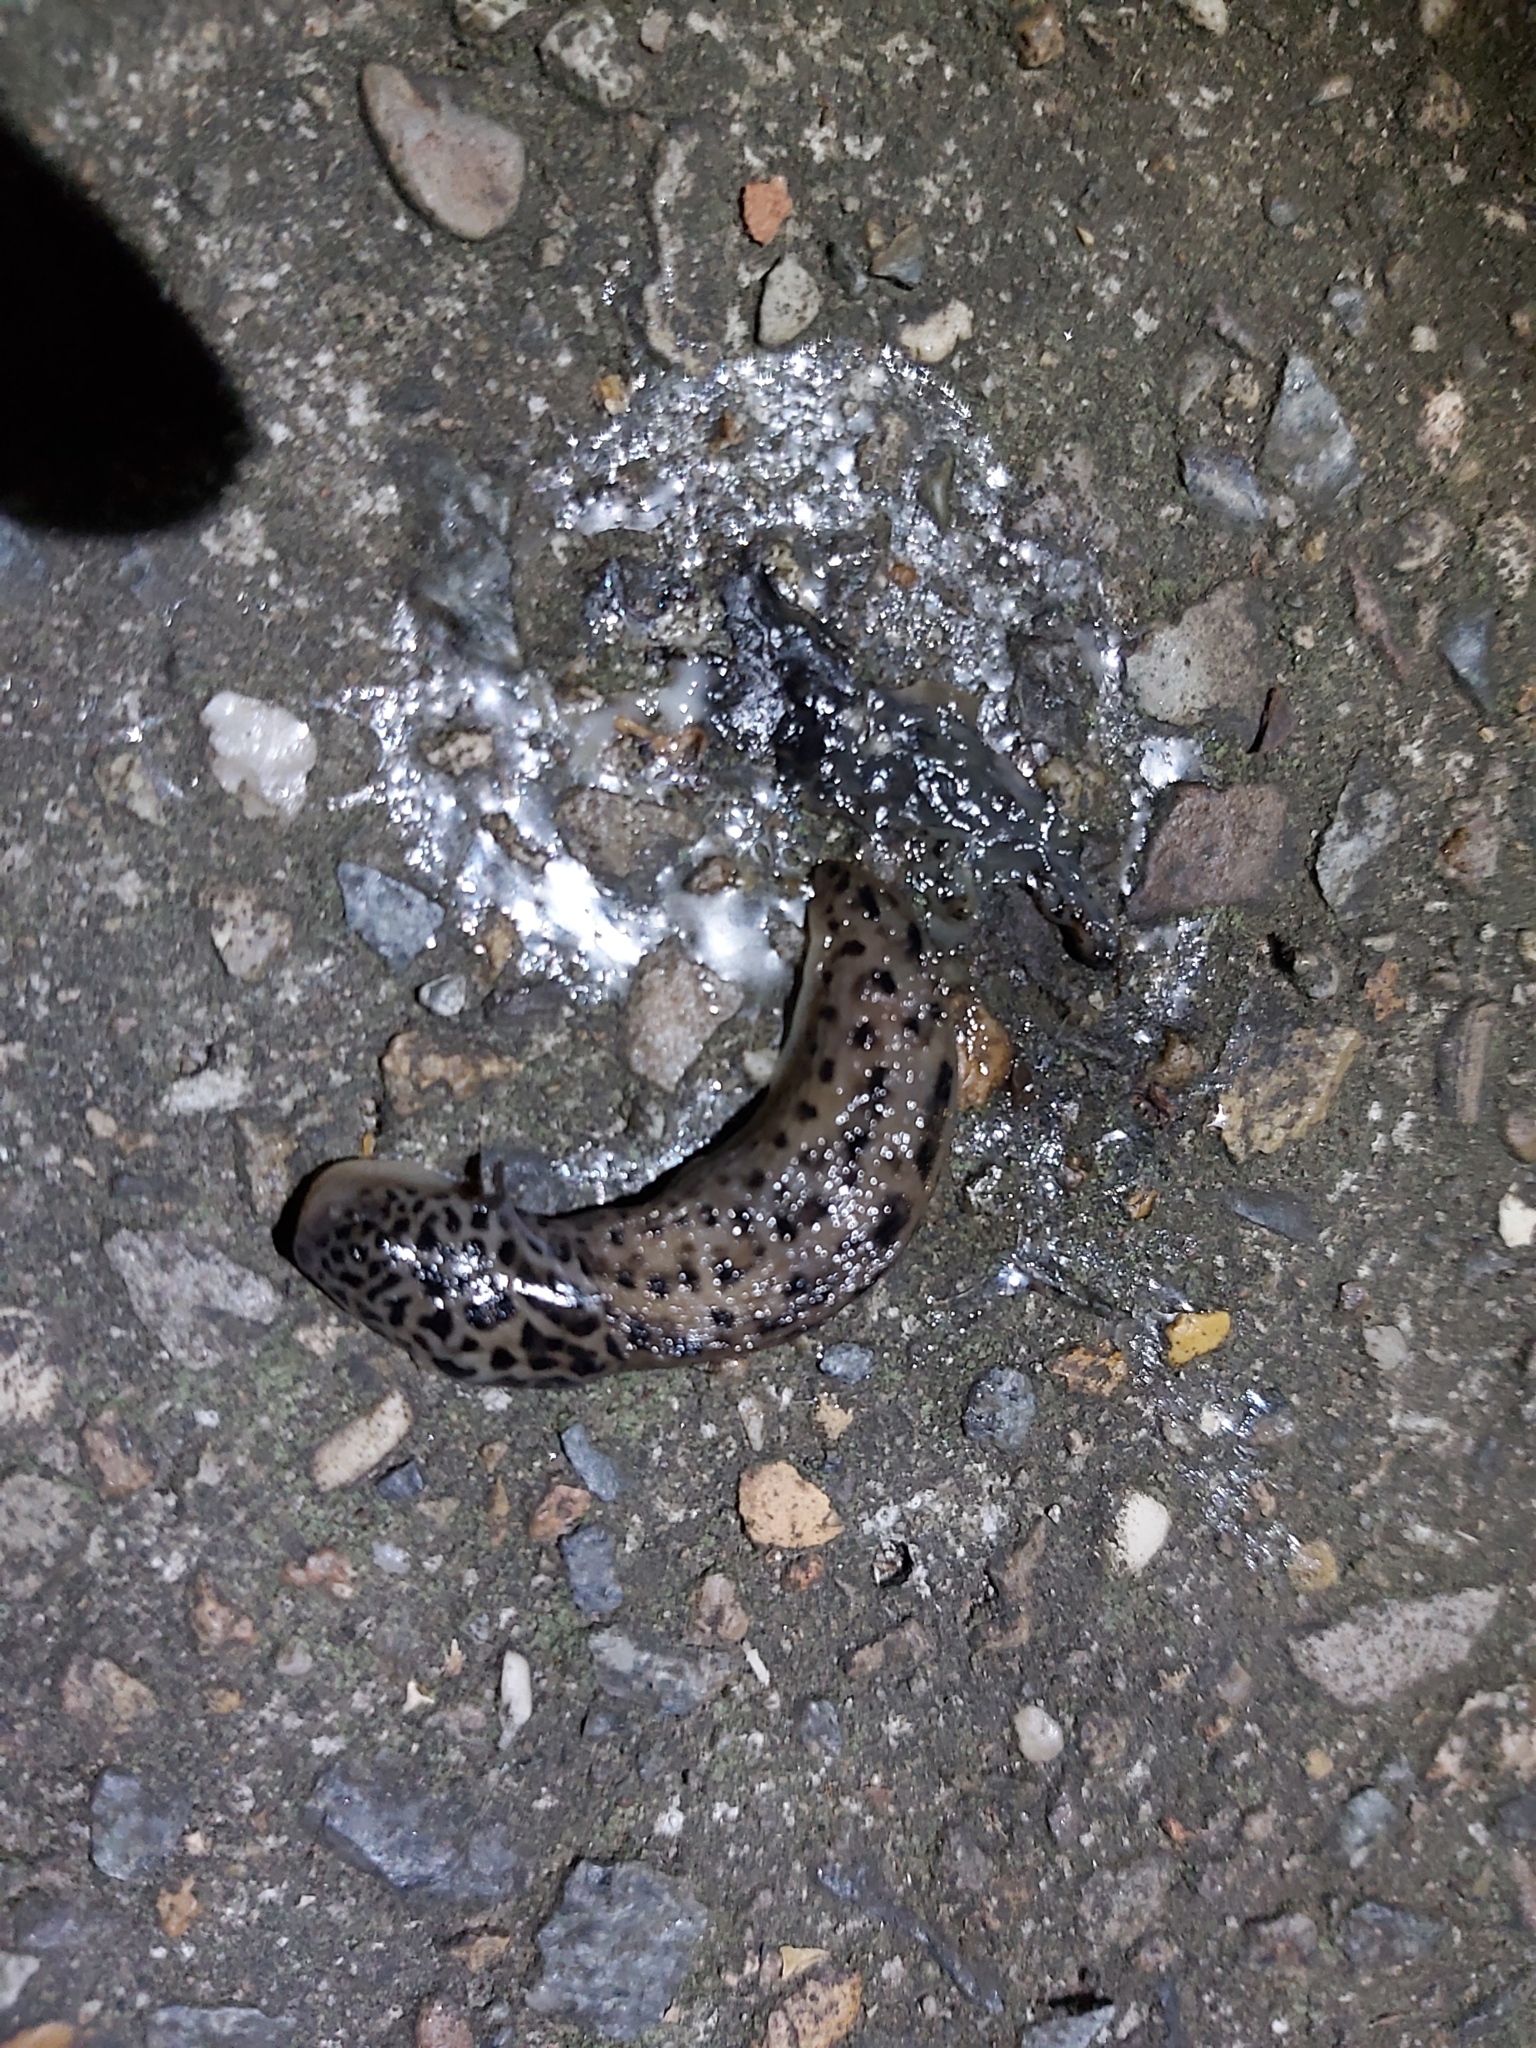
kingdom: Animalia
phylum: Mollusca
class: Gastropoda
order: Stylommatophora
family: Limacidae
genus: Limax
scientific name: Limax maximus
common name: Great grey slug
